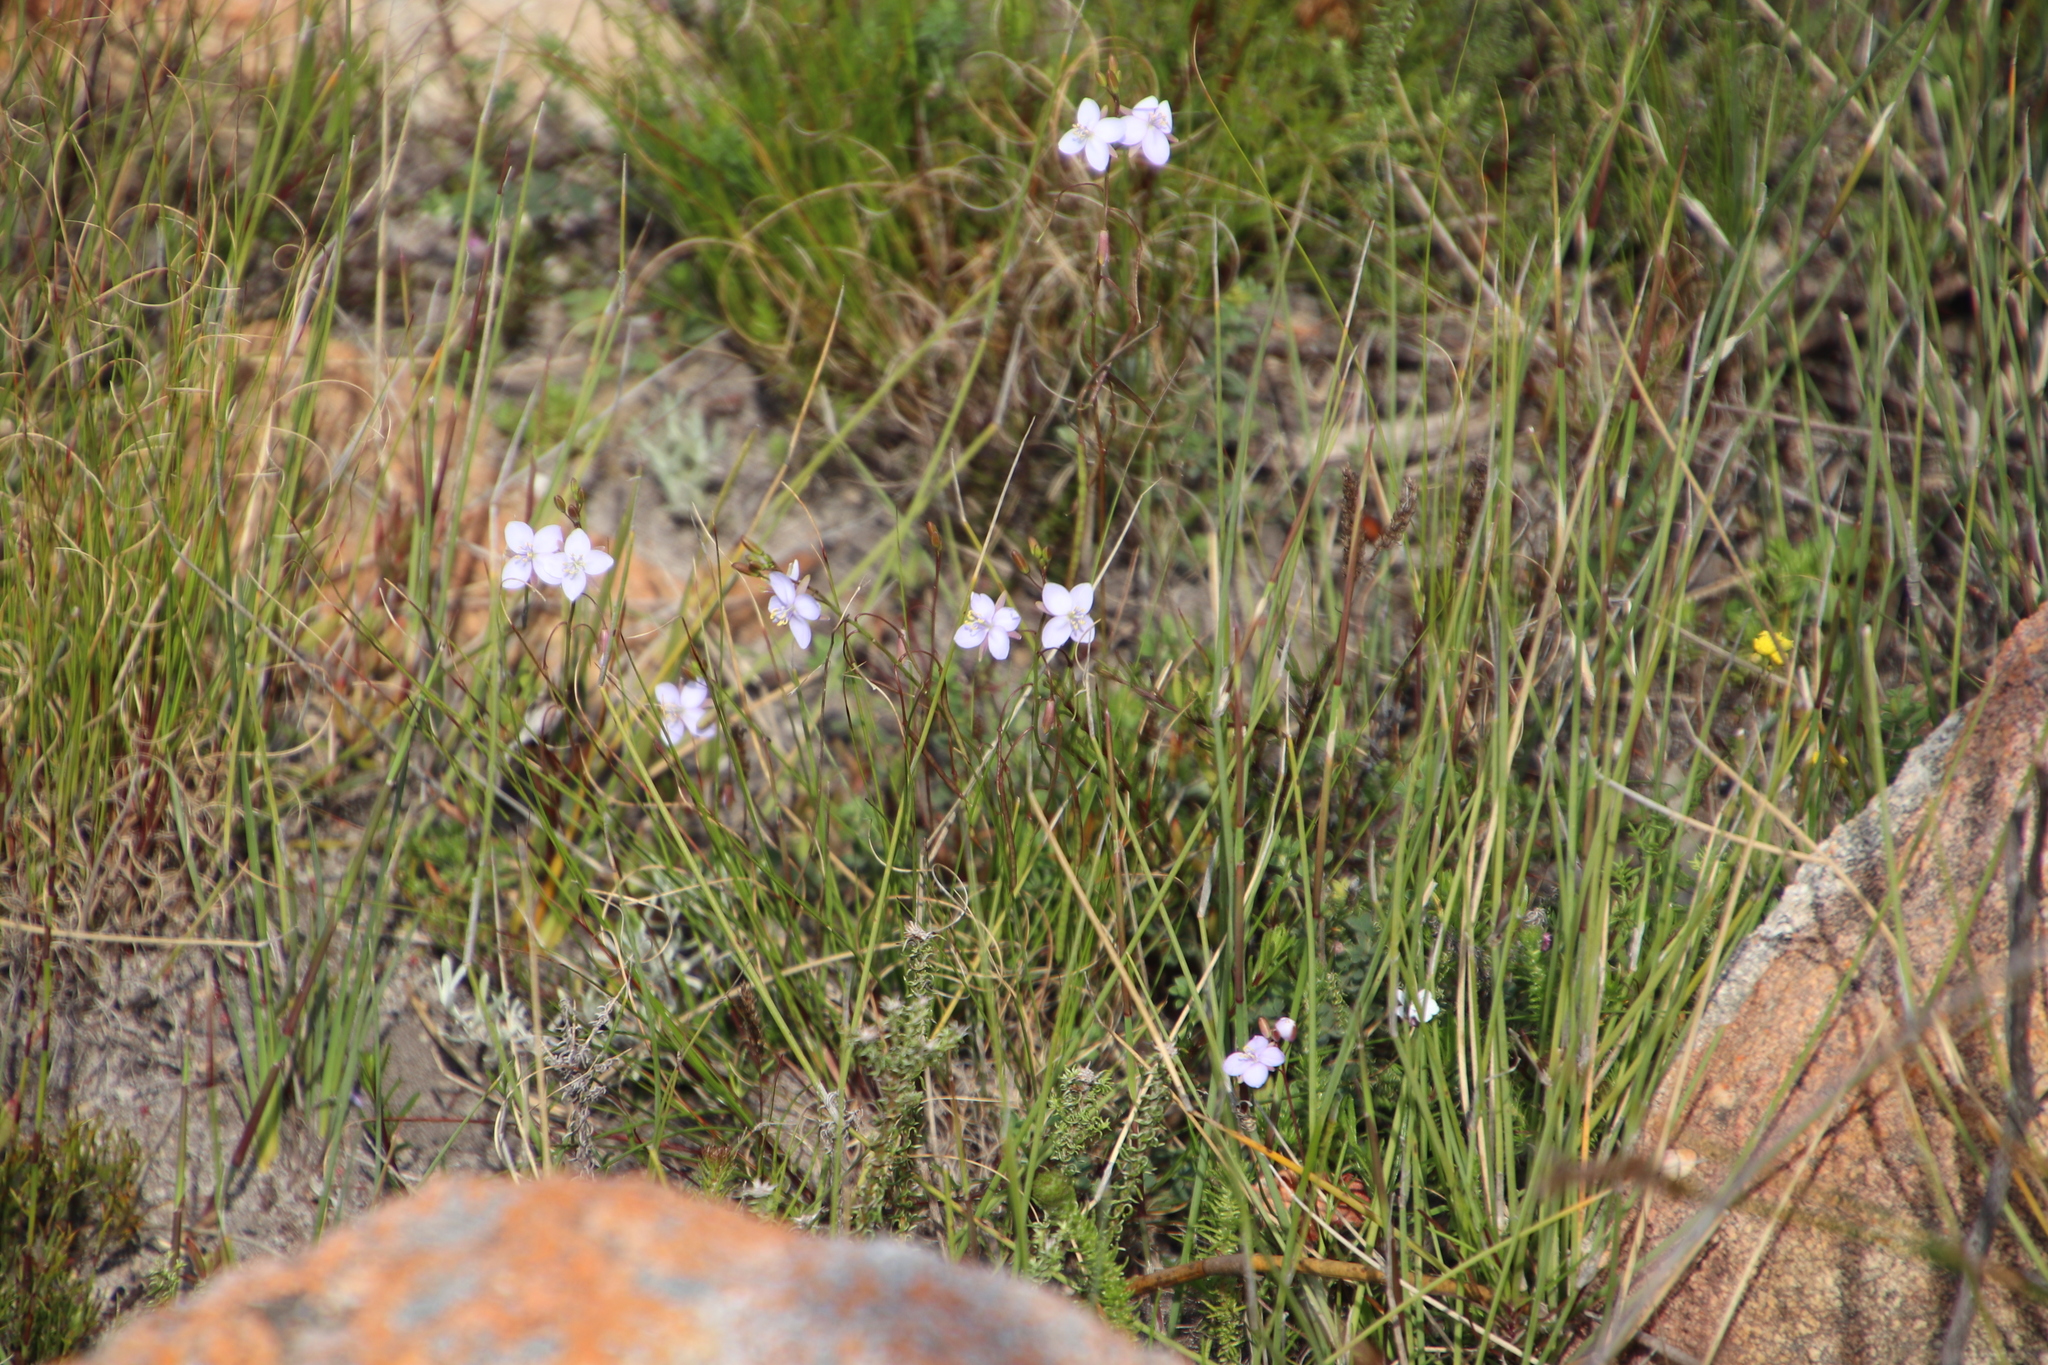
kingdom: Plantae
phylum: Tracheophyta
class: Magnoliopsida
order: Brassicales
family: Brassicaceae
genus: Heliophila
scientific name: Heliophila subulata
